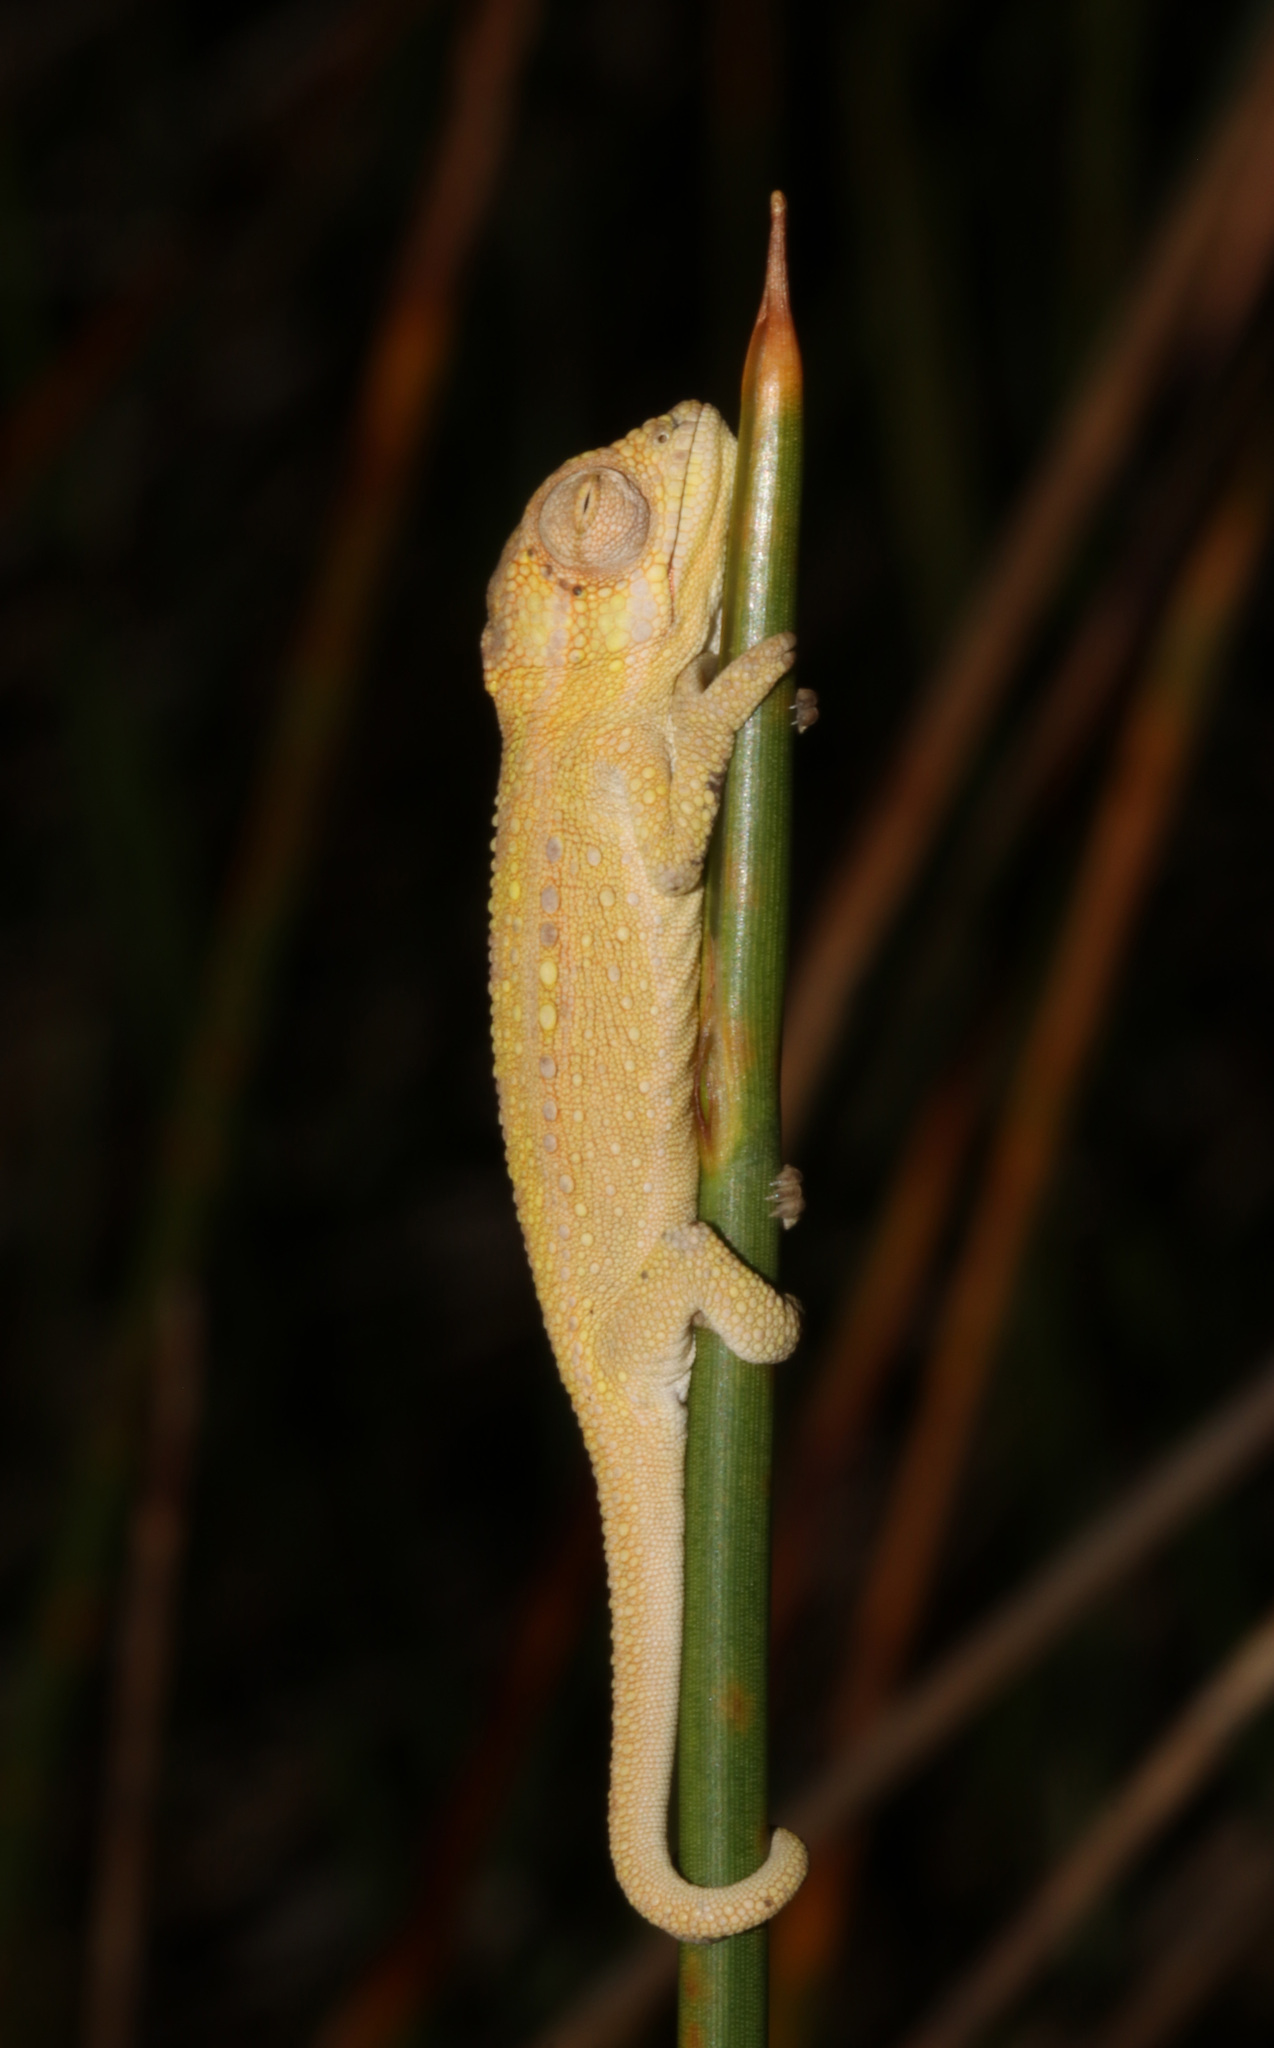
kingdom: Animalia
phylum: Chordata
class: Squamata
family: Chamaeleonidae
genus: Bradypodion
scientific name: Bradypodion pumilum
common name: Cape dwarf chameleon
